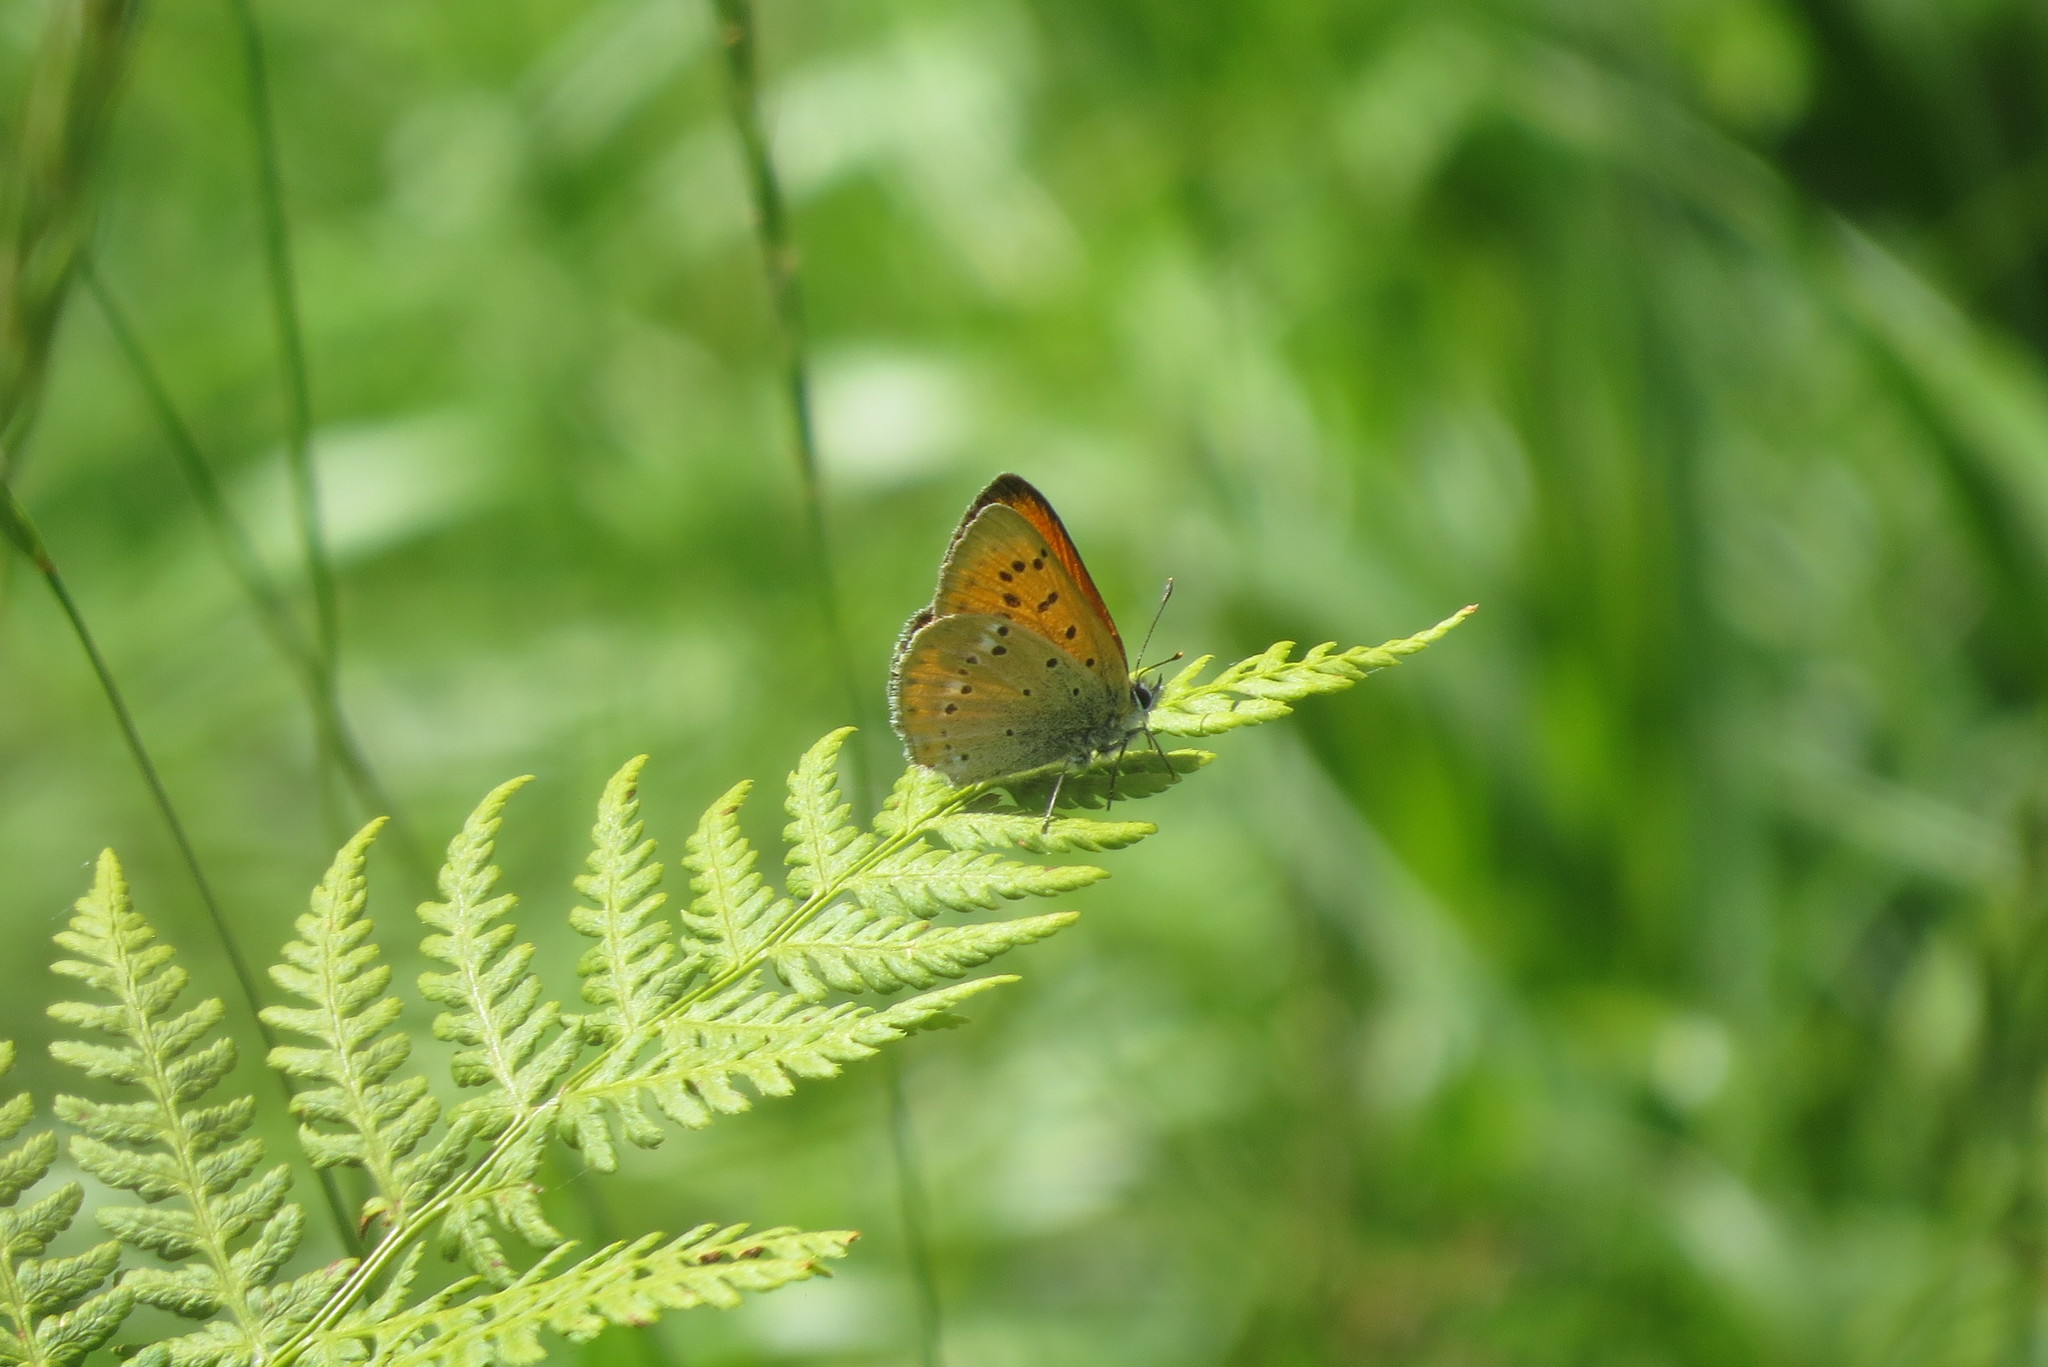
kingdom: Animalia
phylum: Arthropoda
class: Insecta
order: Lepidoptera
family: Lycaenidae
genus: Lycaena
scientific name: Lycaena virgaureae
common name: Scarce copper
